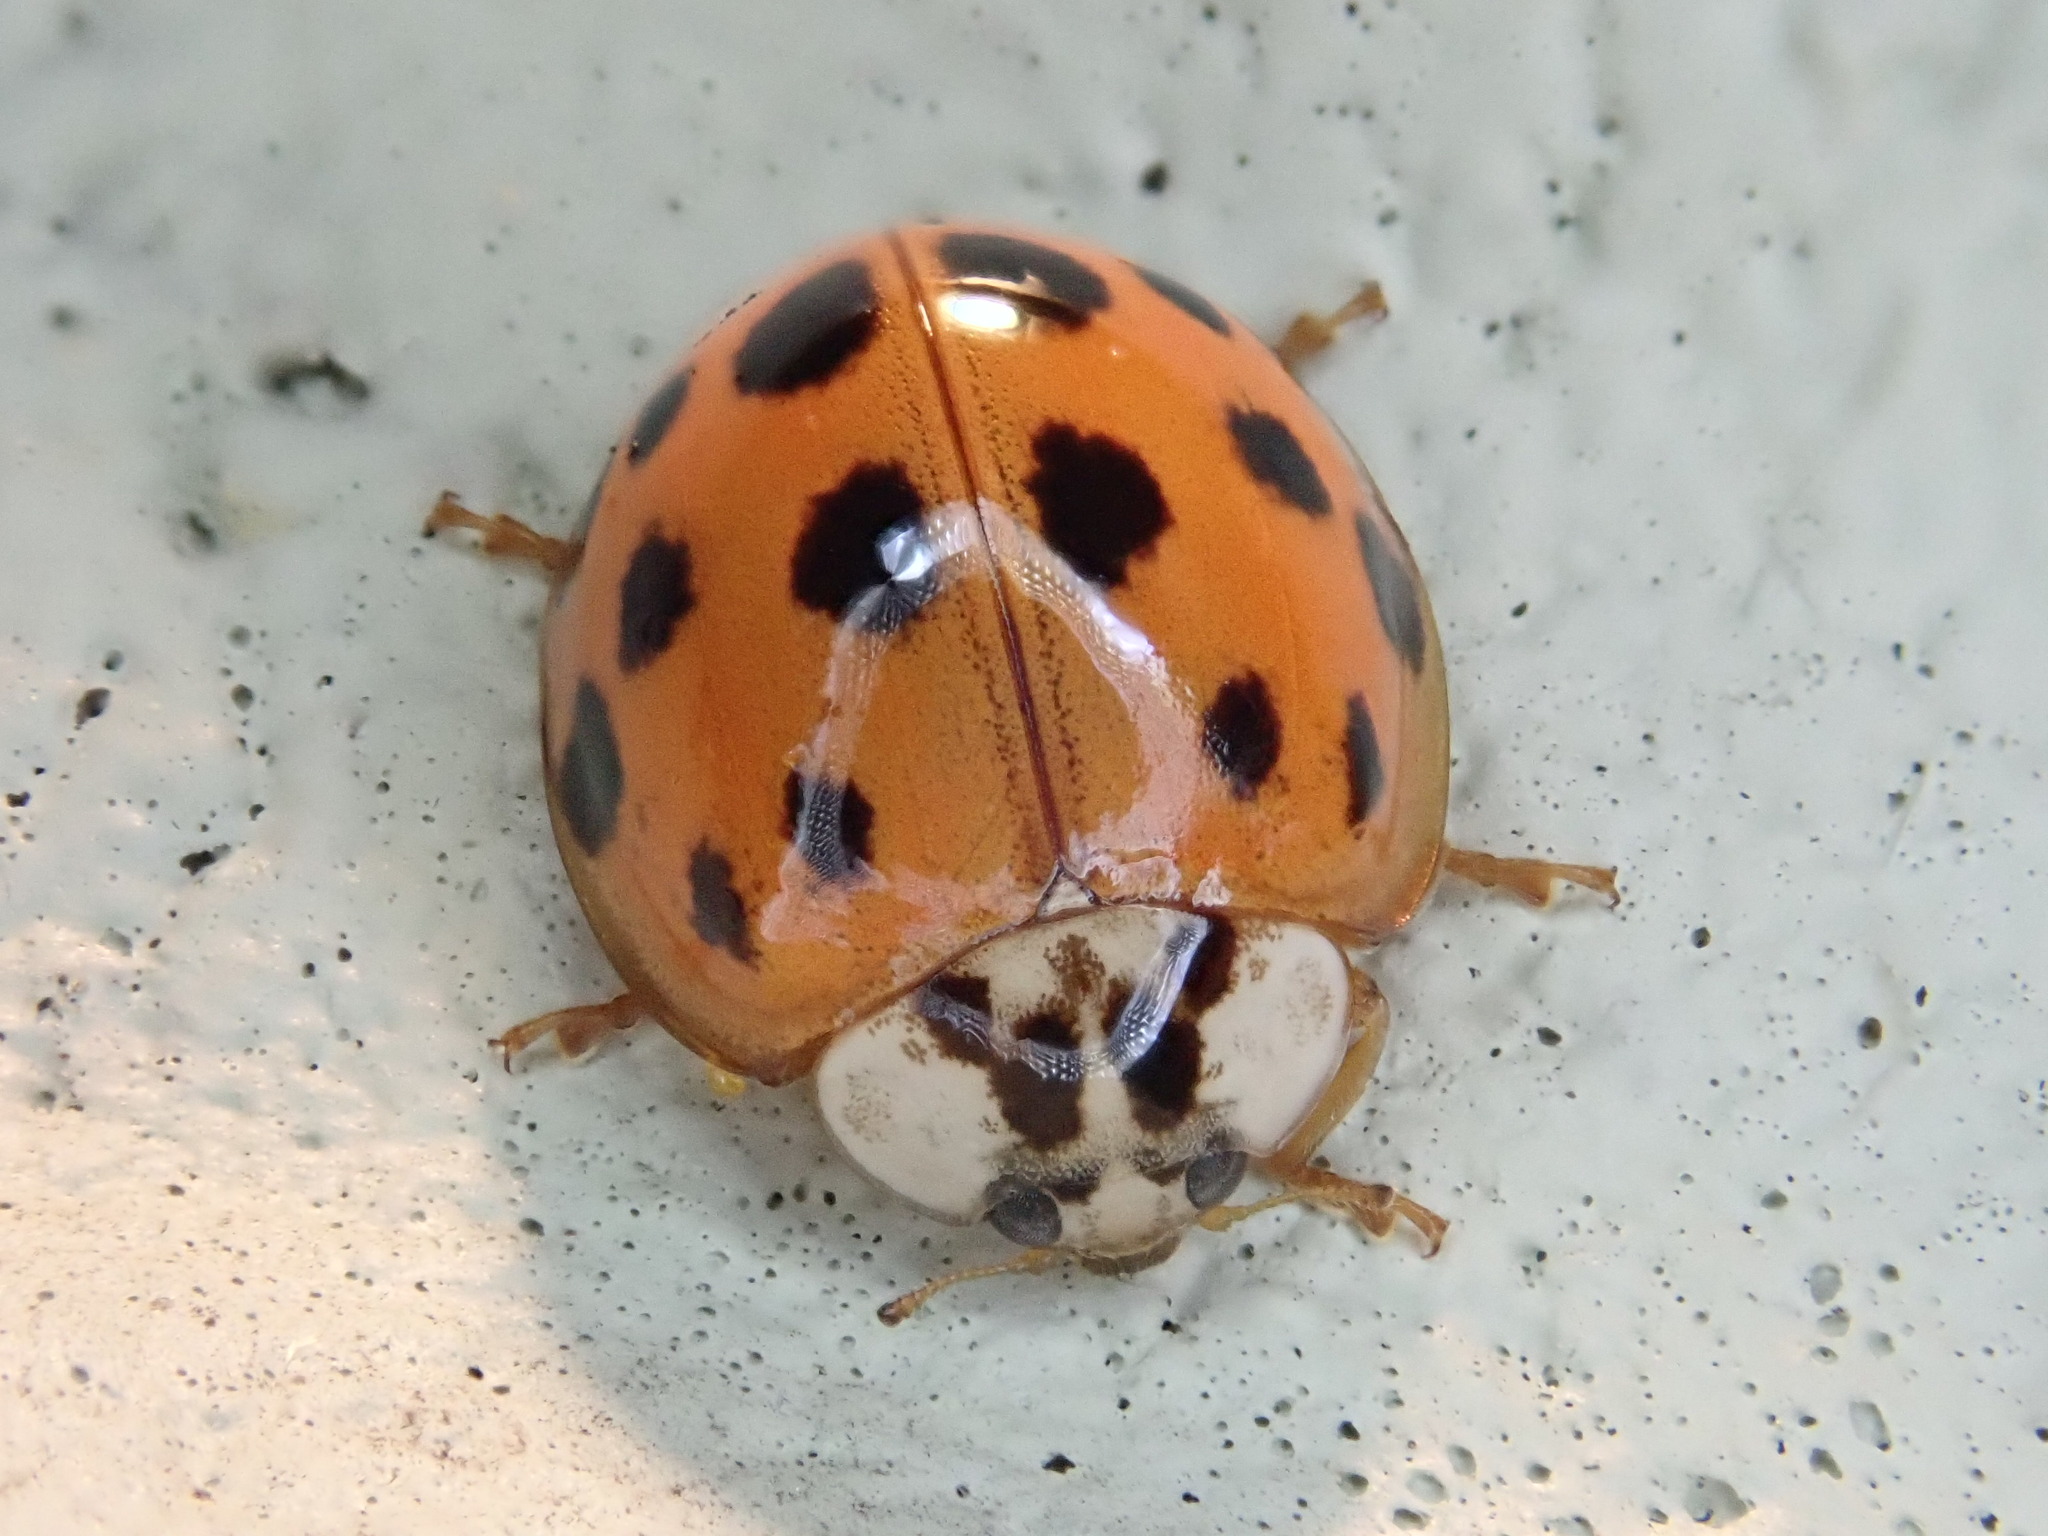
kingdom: Animalia
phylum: Arthropoda
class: Insecta
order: Coleoptera
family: Coccinellidae
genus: Harmonia
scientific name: Harmonia axyridis
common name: Harlequin ladybird
